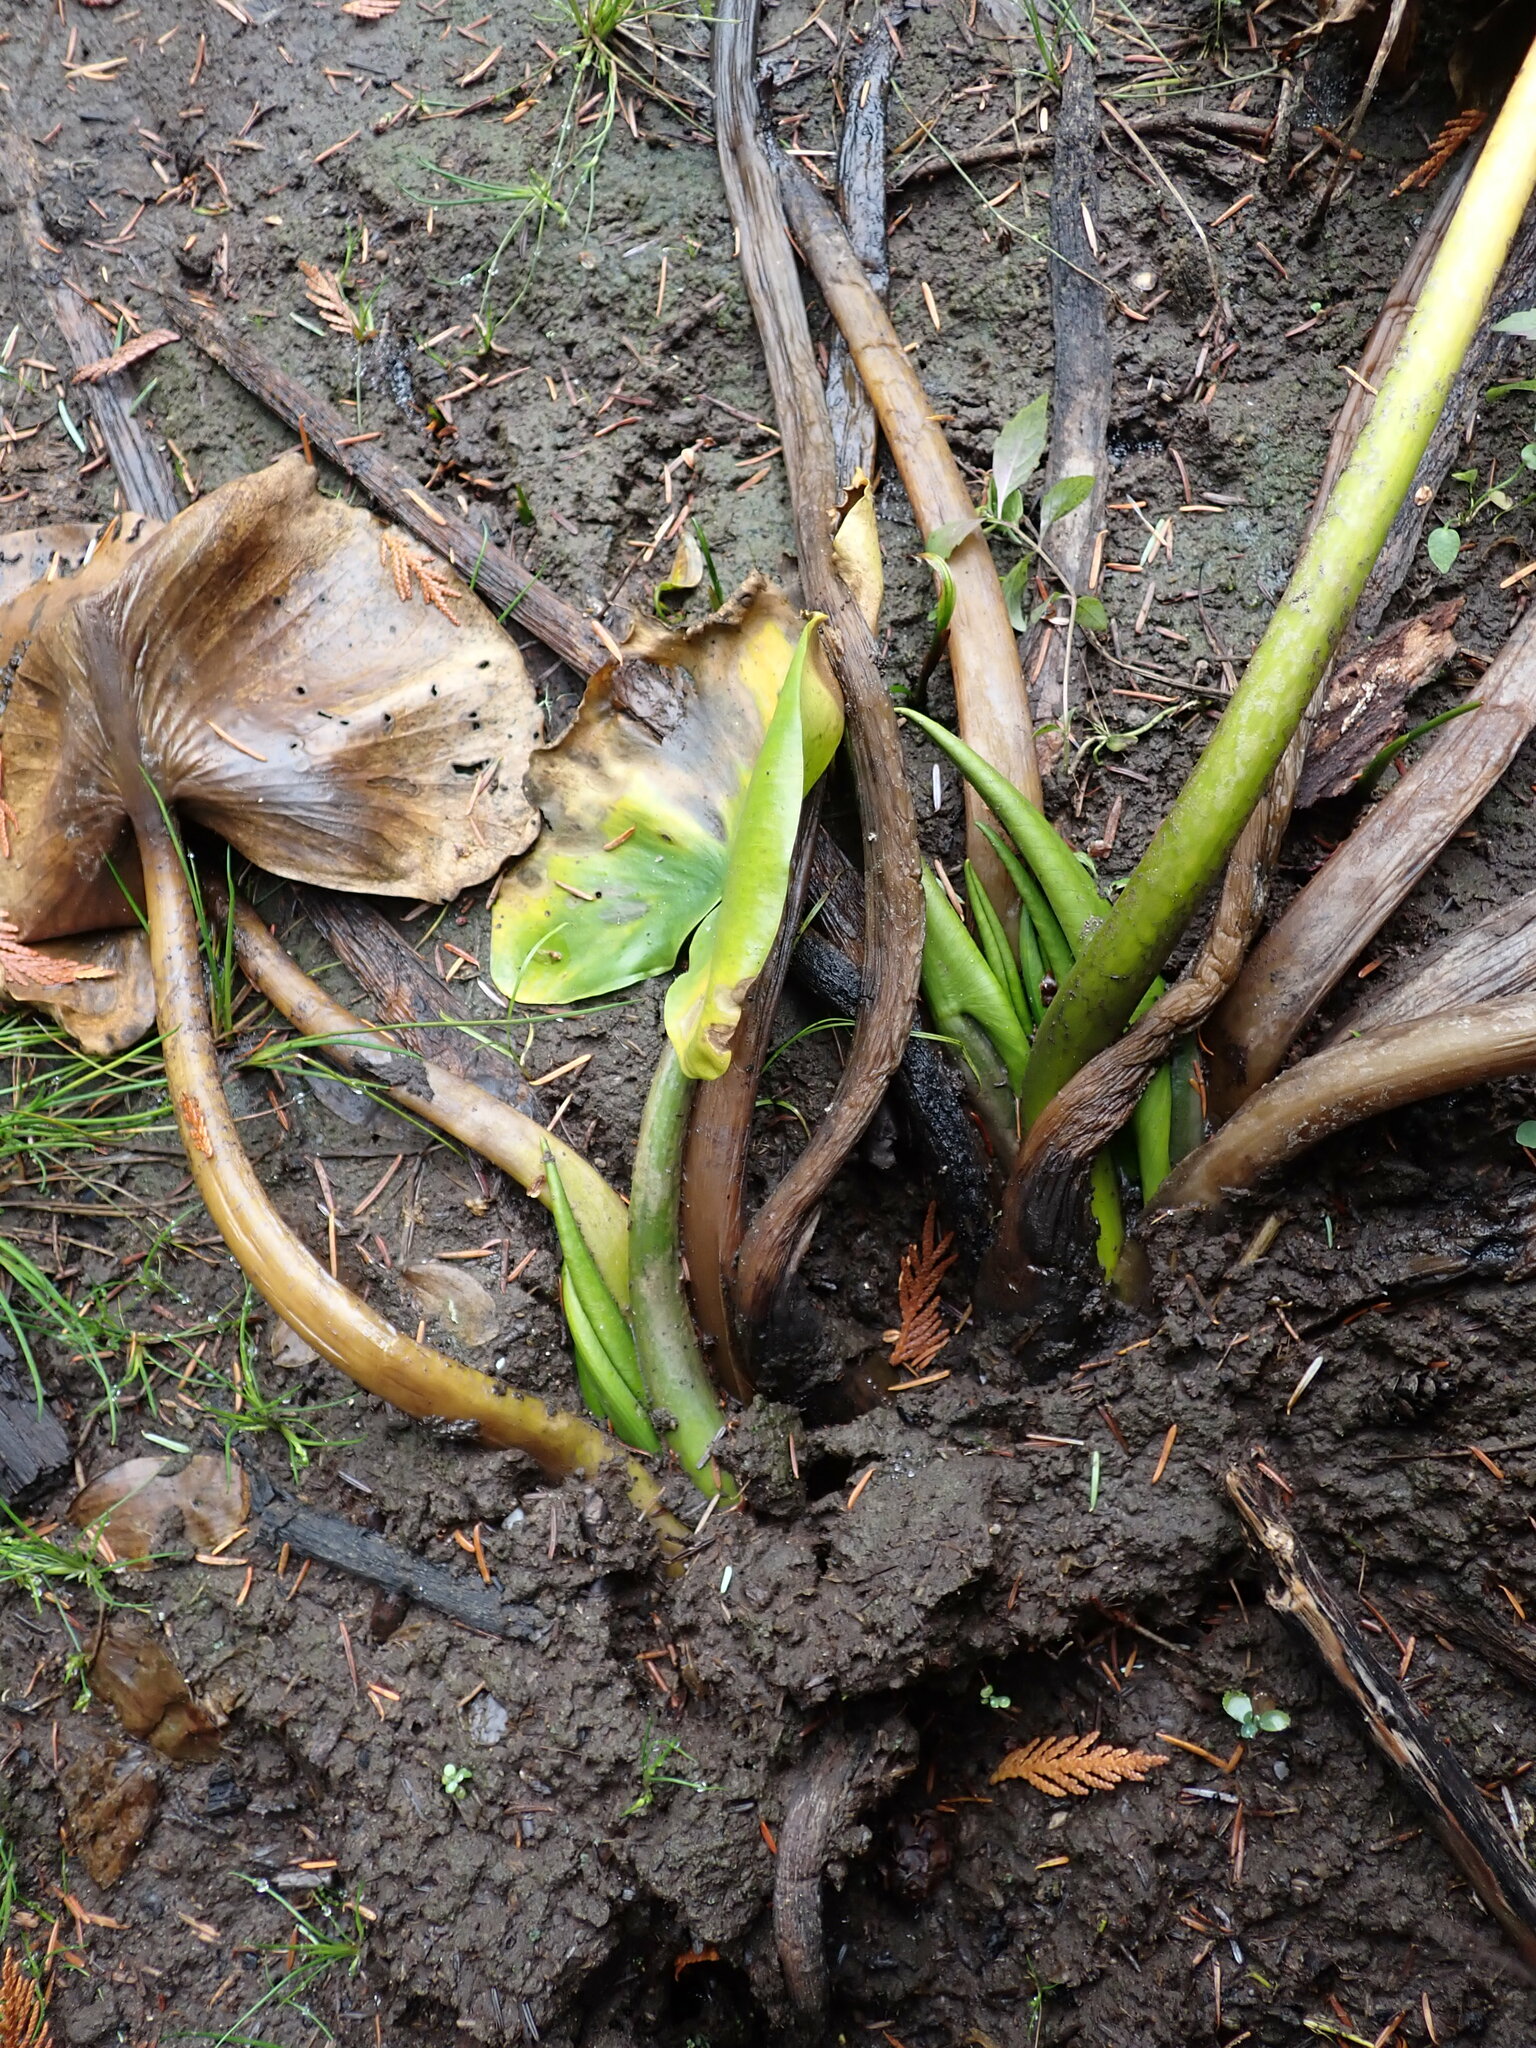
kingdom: Plantae
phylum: Tracheophyta
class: Magnoliopsida
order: Nymphaeales
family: Nymphaeaceae
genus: Nuphar
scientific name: Nuphar polysepala
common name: Rocky mountain cow-lily
